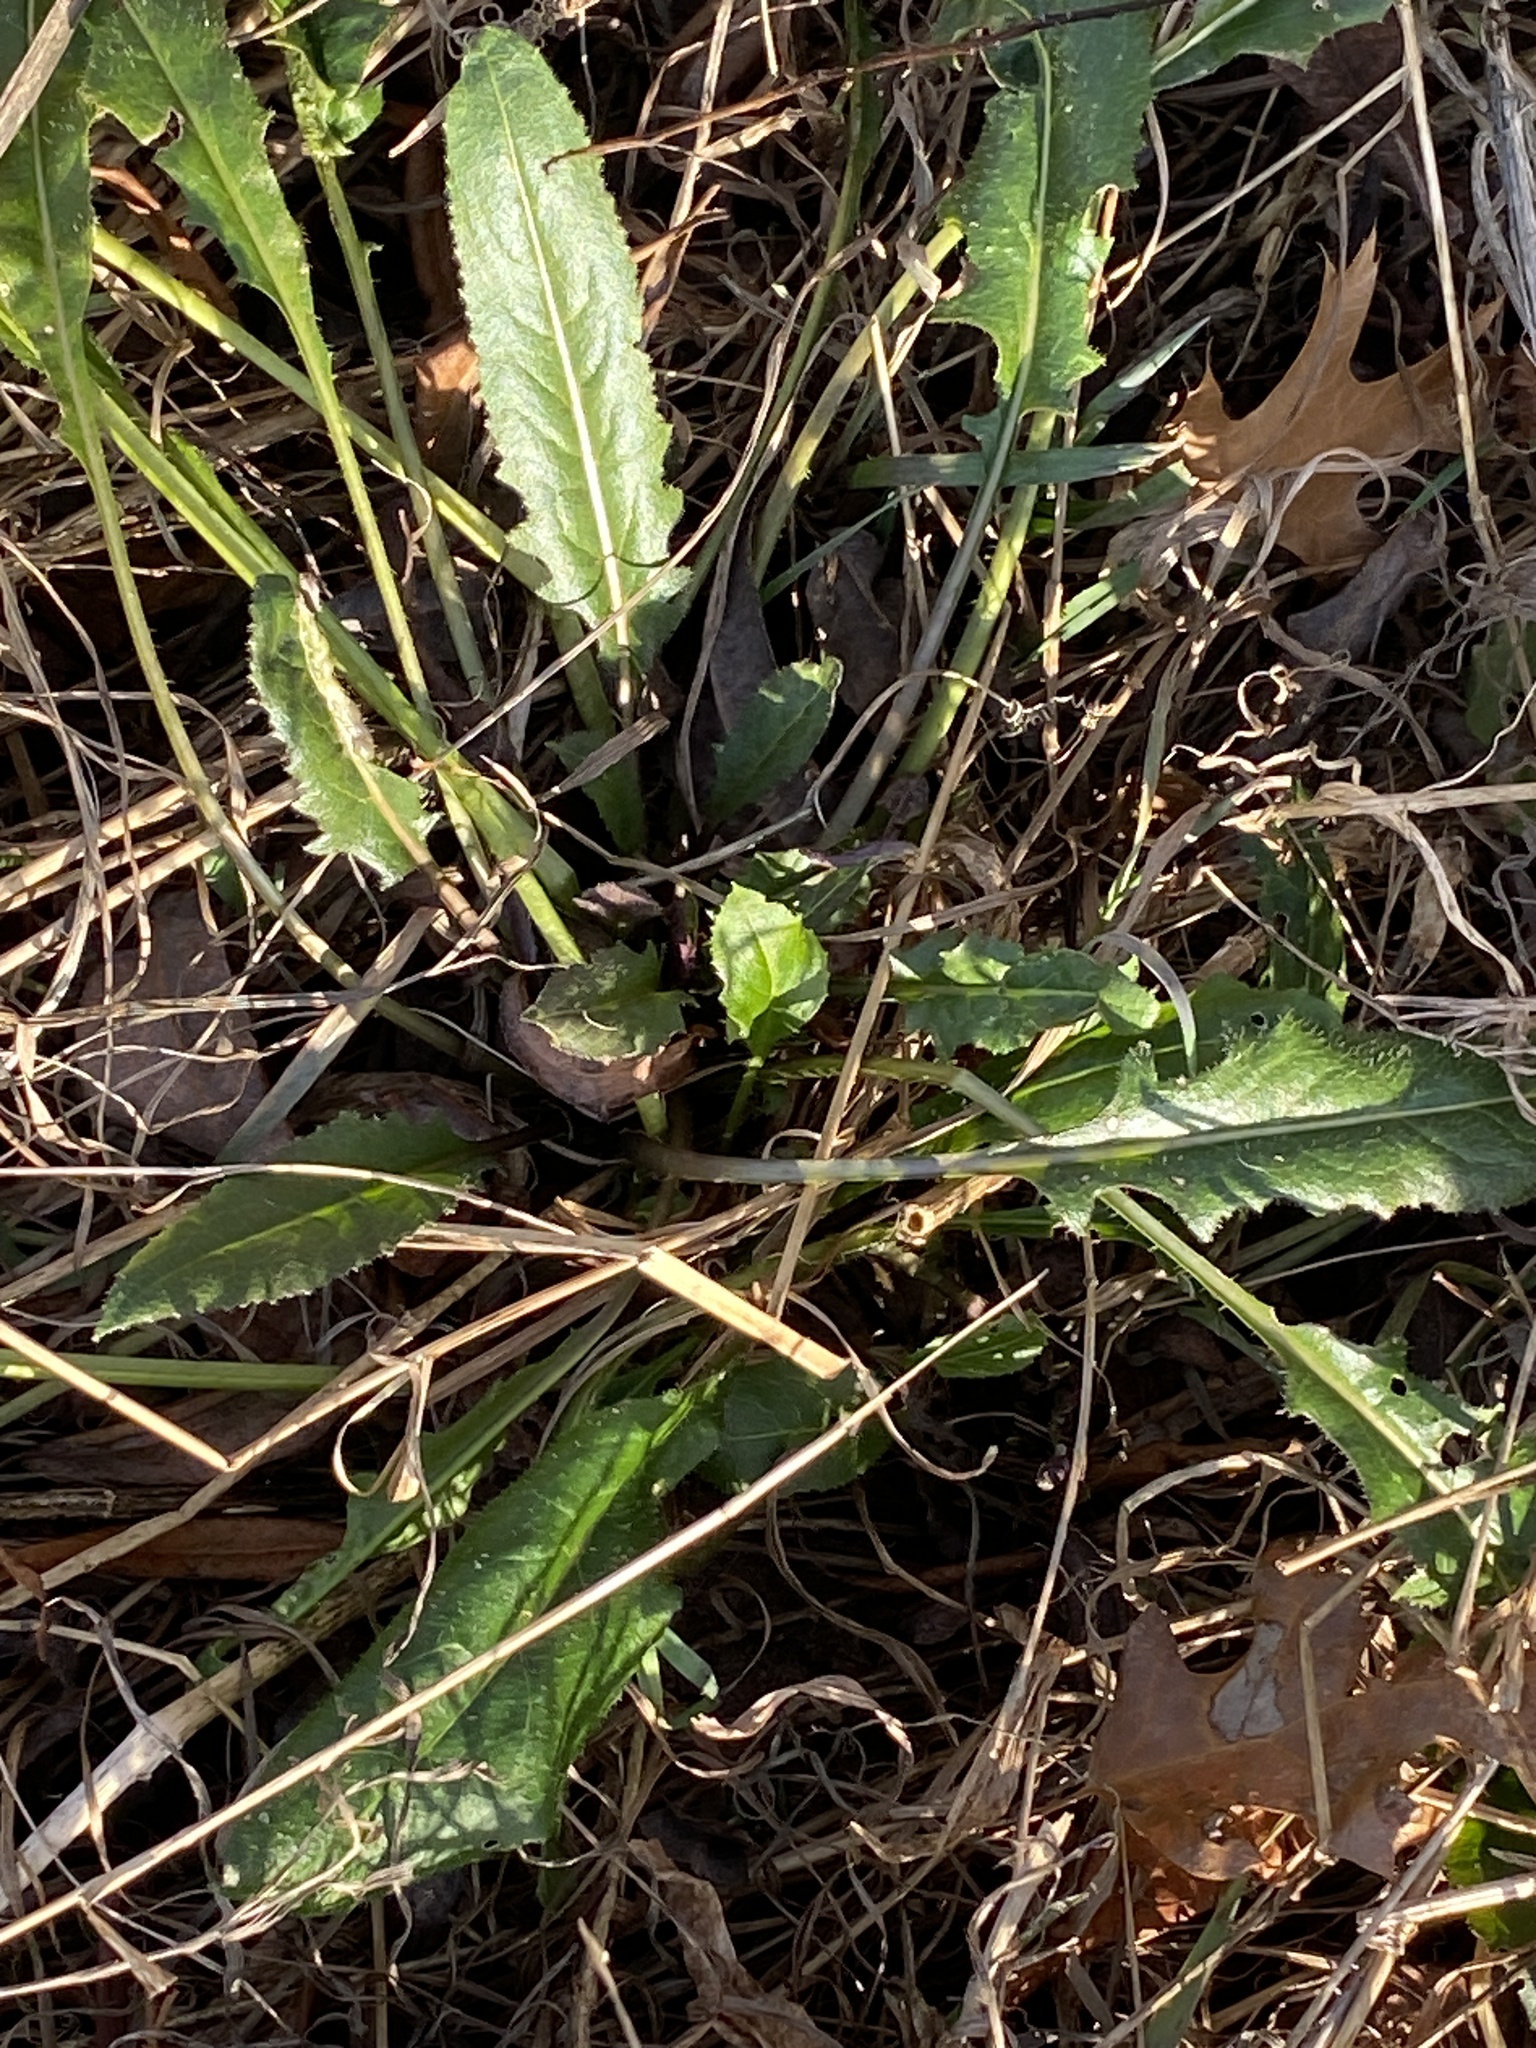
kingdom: Plantae
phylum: Tracheophyta
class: Magnoliopsida
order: Brassicales
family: Brassicaceae
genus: Hesperis
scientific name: Hesperis matronalis
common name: Dame's-violet
